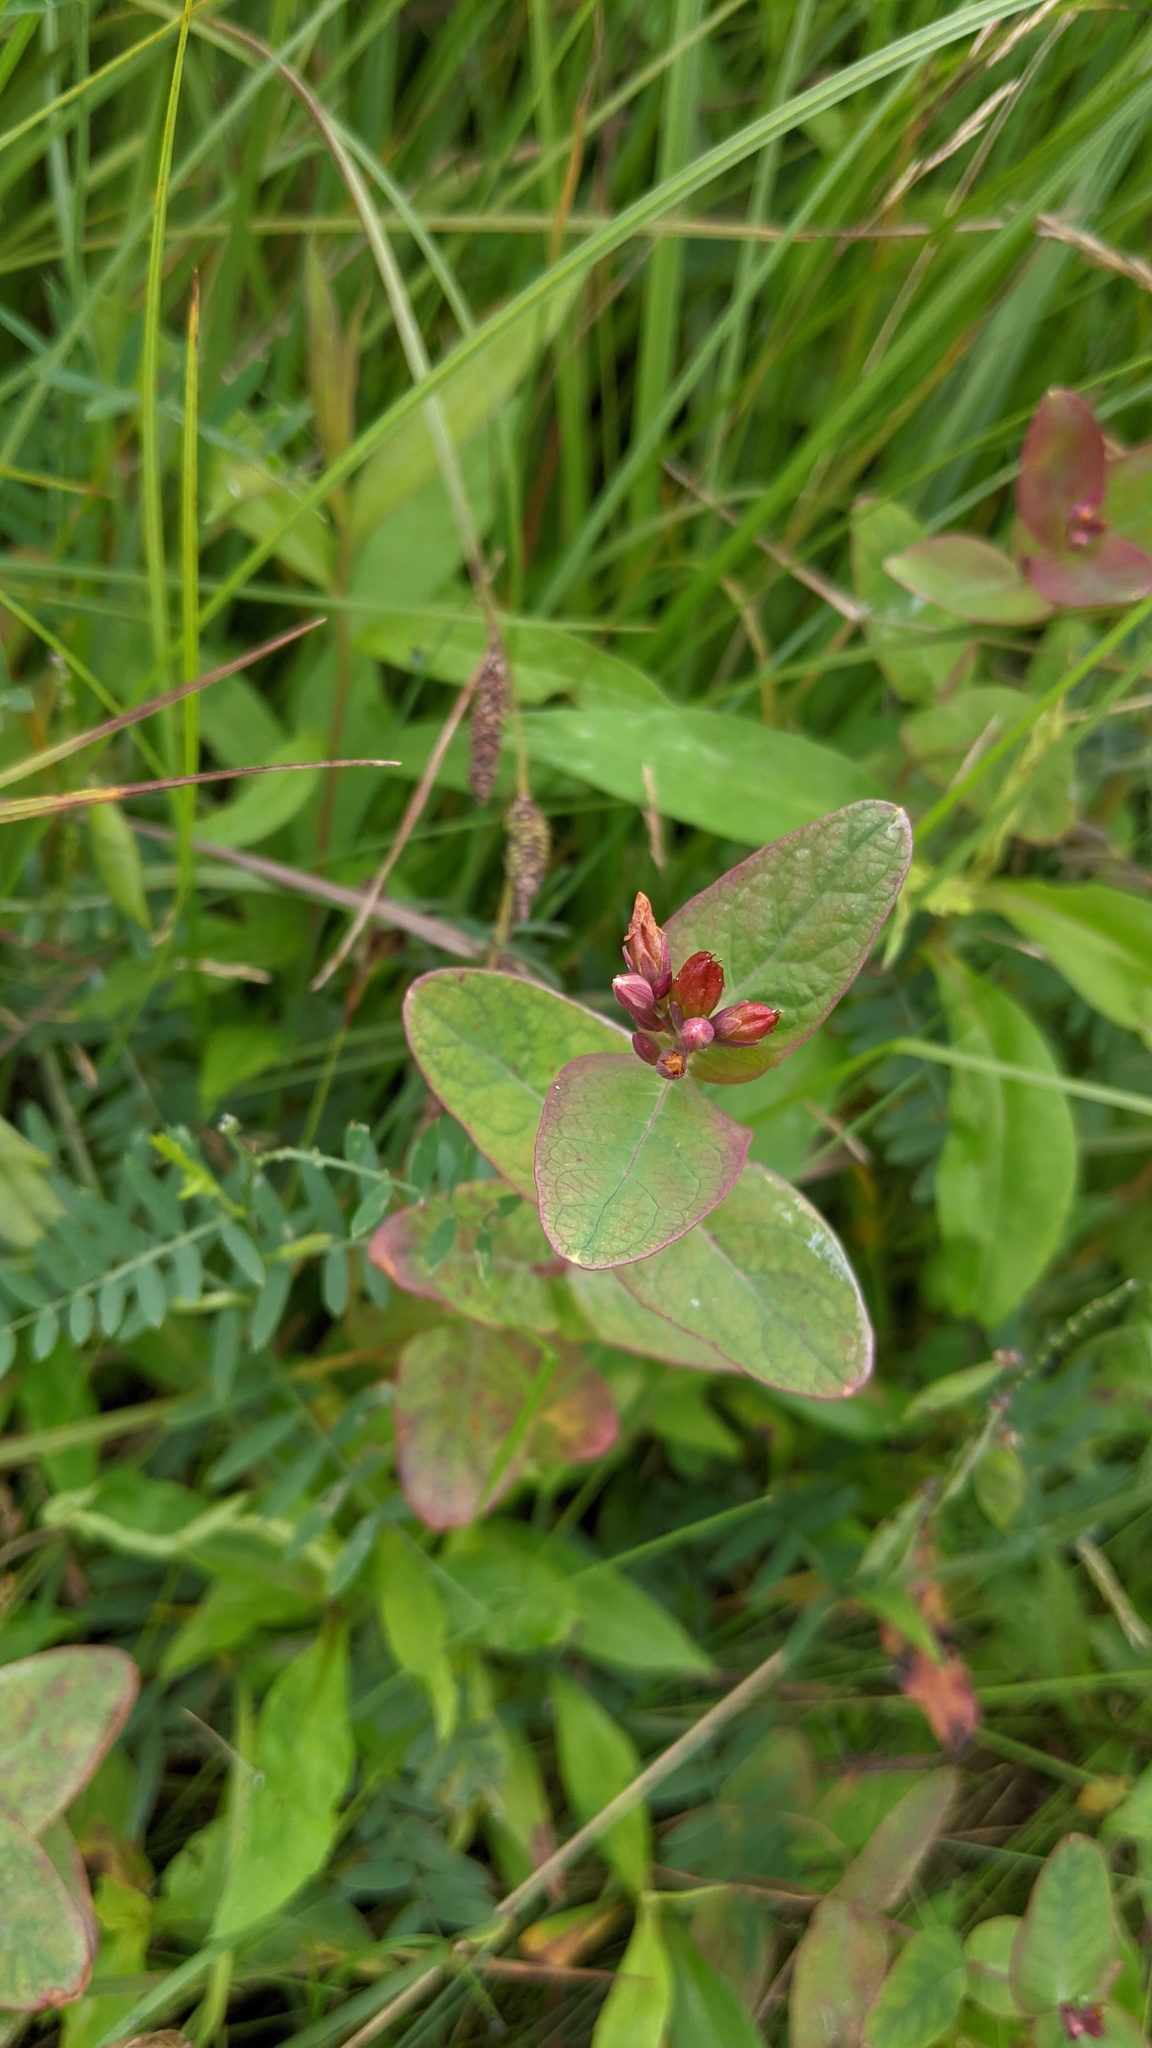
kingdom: Plantae
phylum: Tracheophyta
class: Magnoliopsida
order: Malpighiales
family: Hypericaceae
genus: Triadenum
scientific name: Triadenum fraseri
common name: Fraser's marsh st. johnswort
